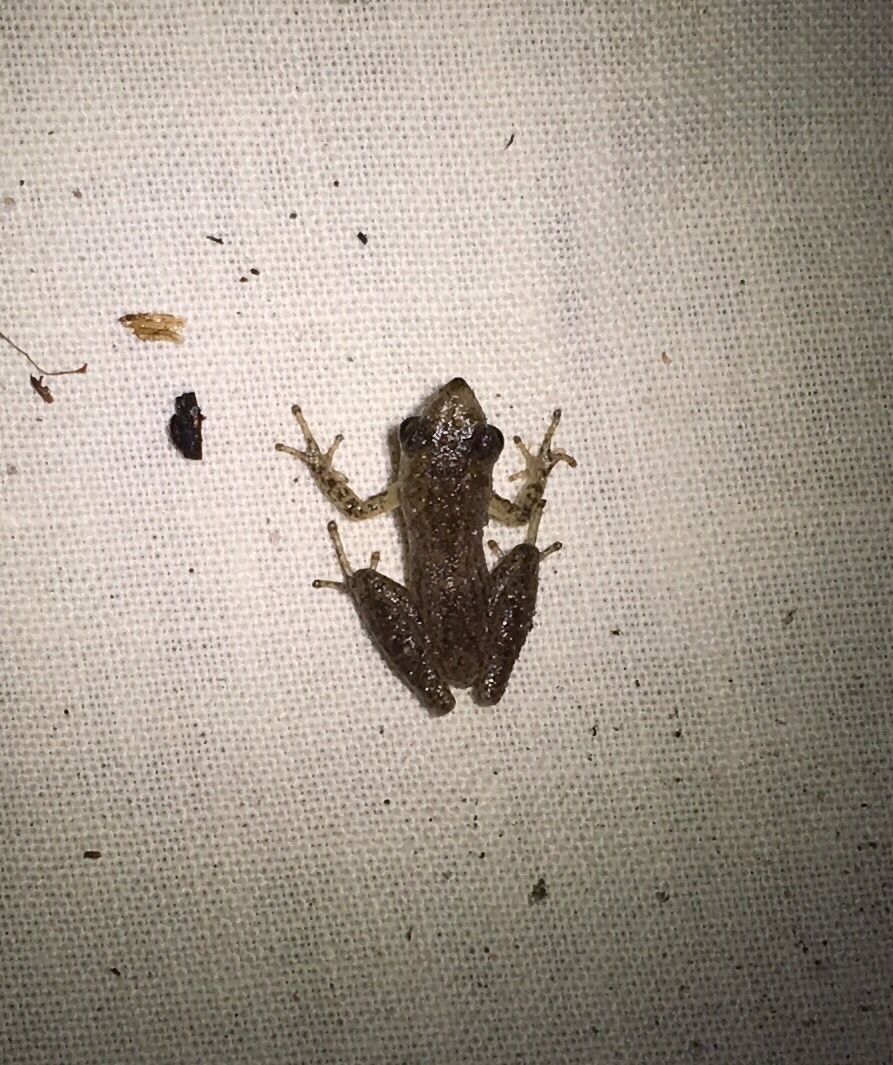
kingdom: Animalia
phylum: Chordata
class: Amphibia
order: Anura
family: Hylidae
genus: Pseudacris
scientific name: Pseudacris ocularis
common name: Little grass frog
